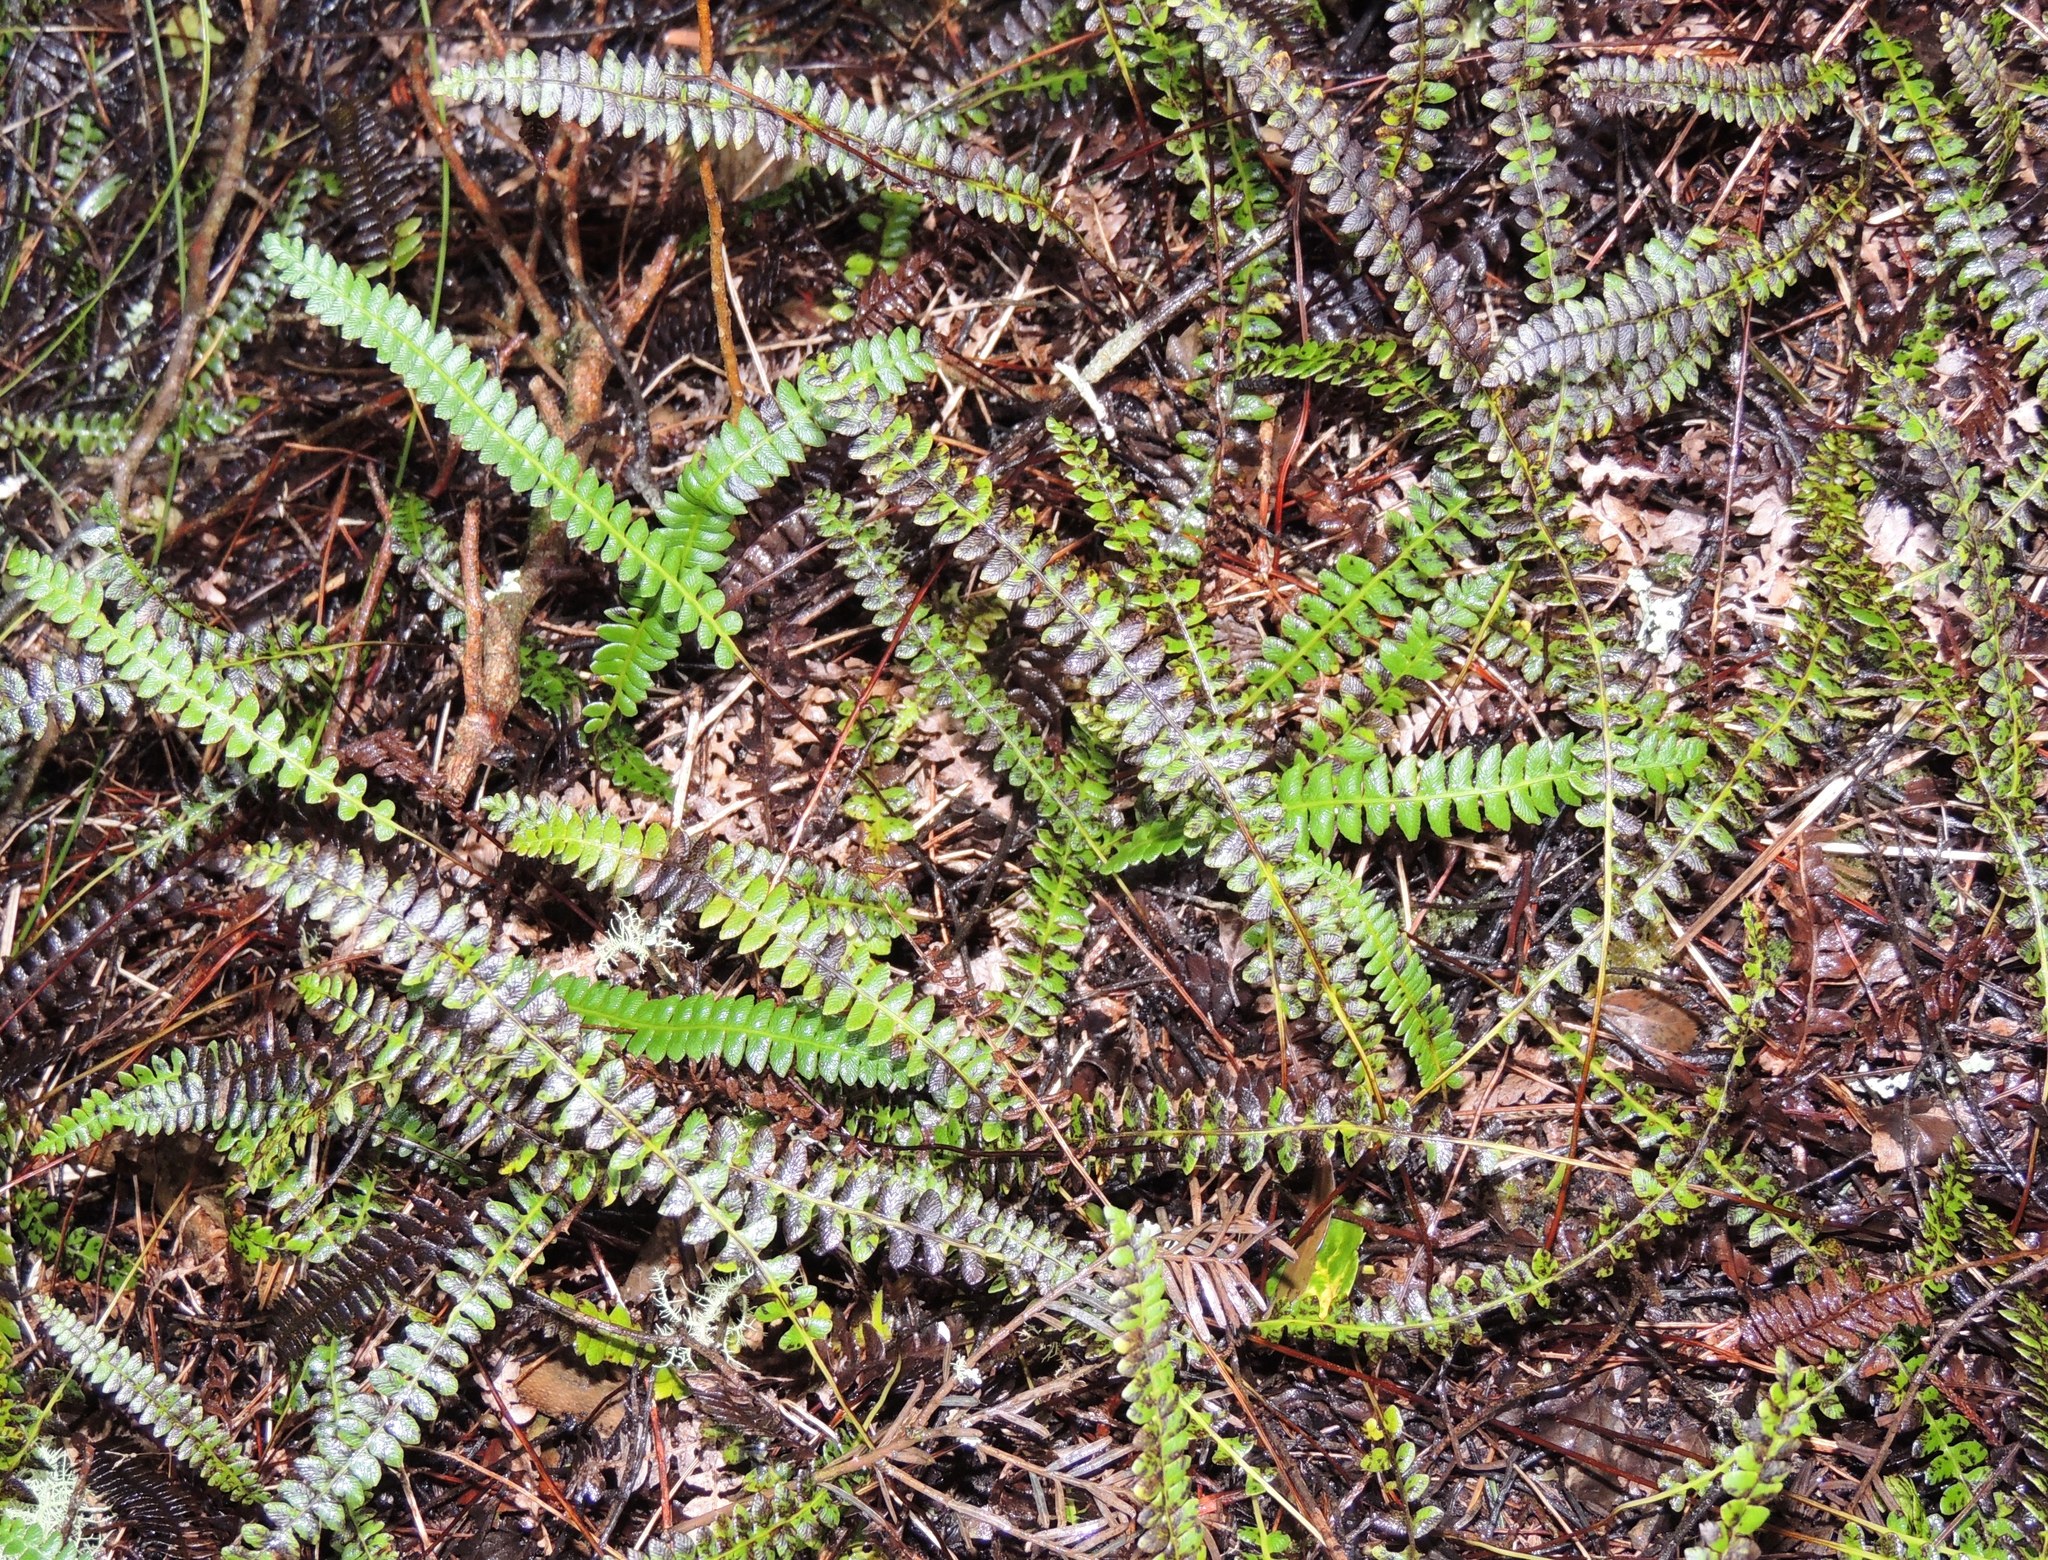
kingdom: Plantae
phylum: Tracheophyta
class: Polypodiopsida
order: Polypodiales
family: Blechnaceae
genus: Austroblechnum
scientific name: Austroblechnum penna-marina
